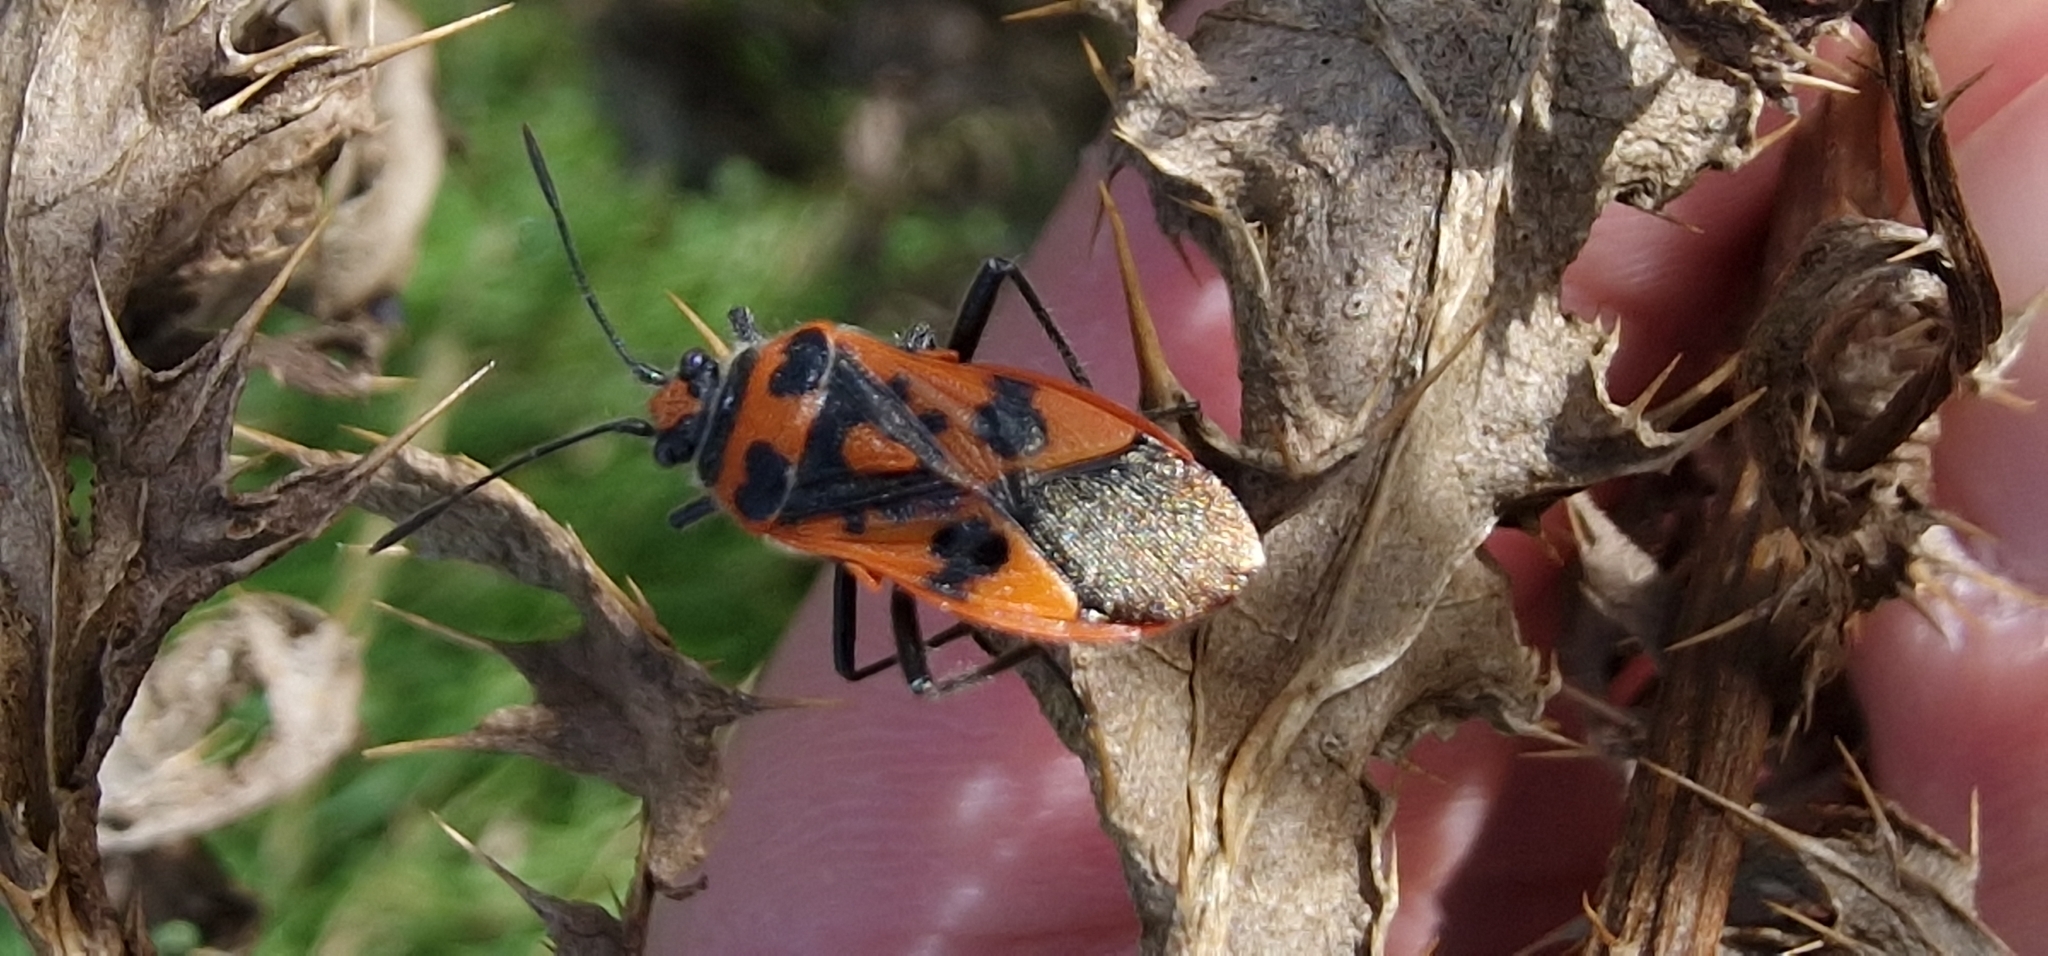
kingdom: Animalia
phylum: Arthropoda
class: Insecta
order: Hemiptera
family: Rhopalidae
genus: Corizus
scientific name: Corizus hyoscyami
